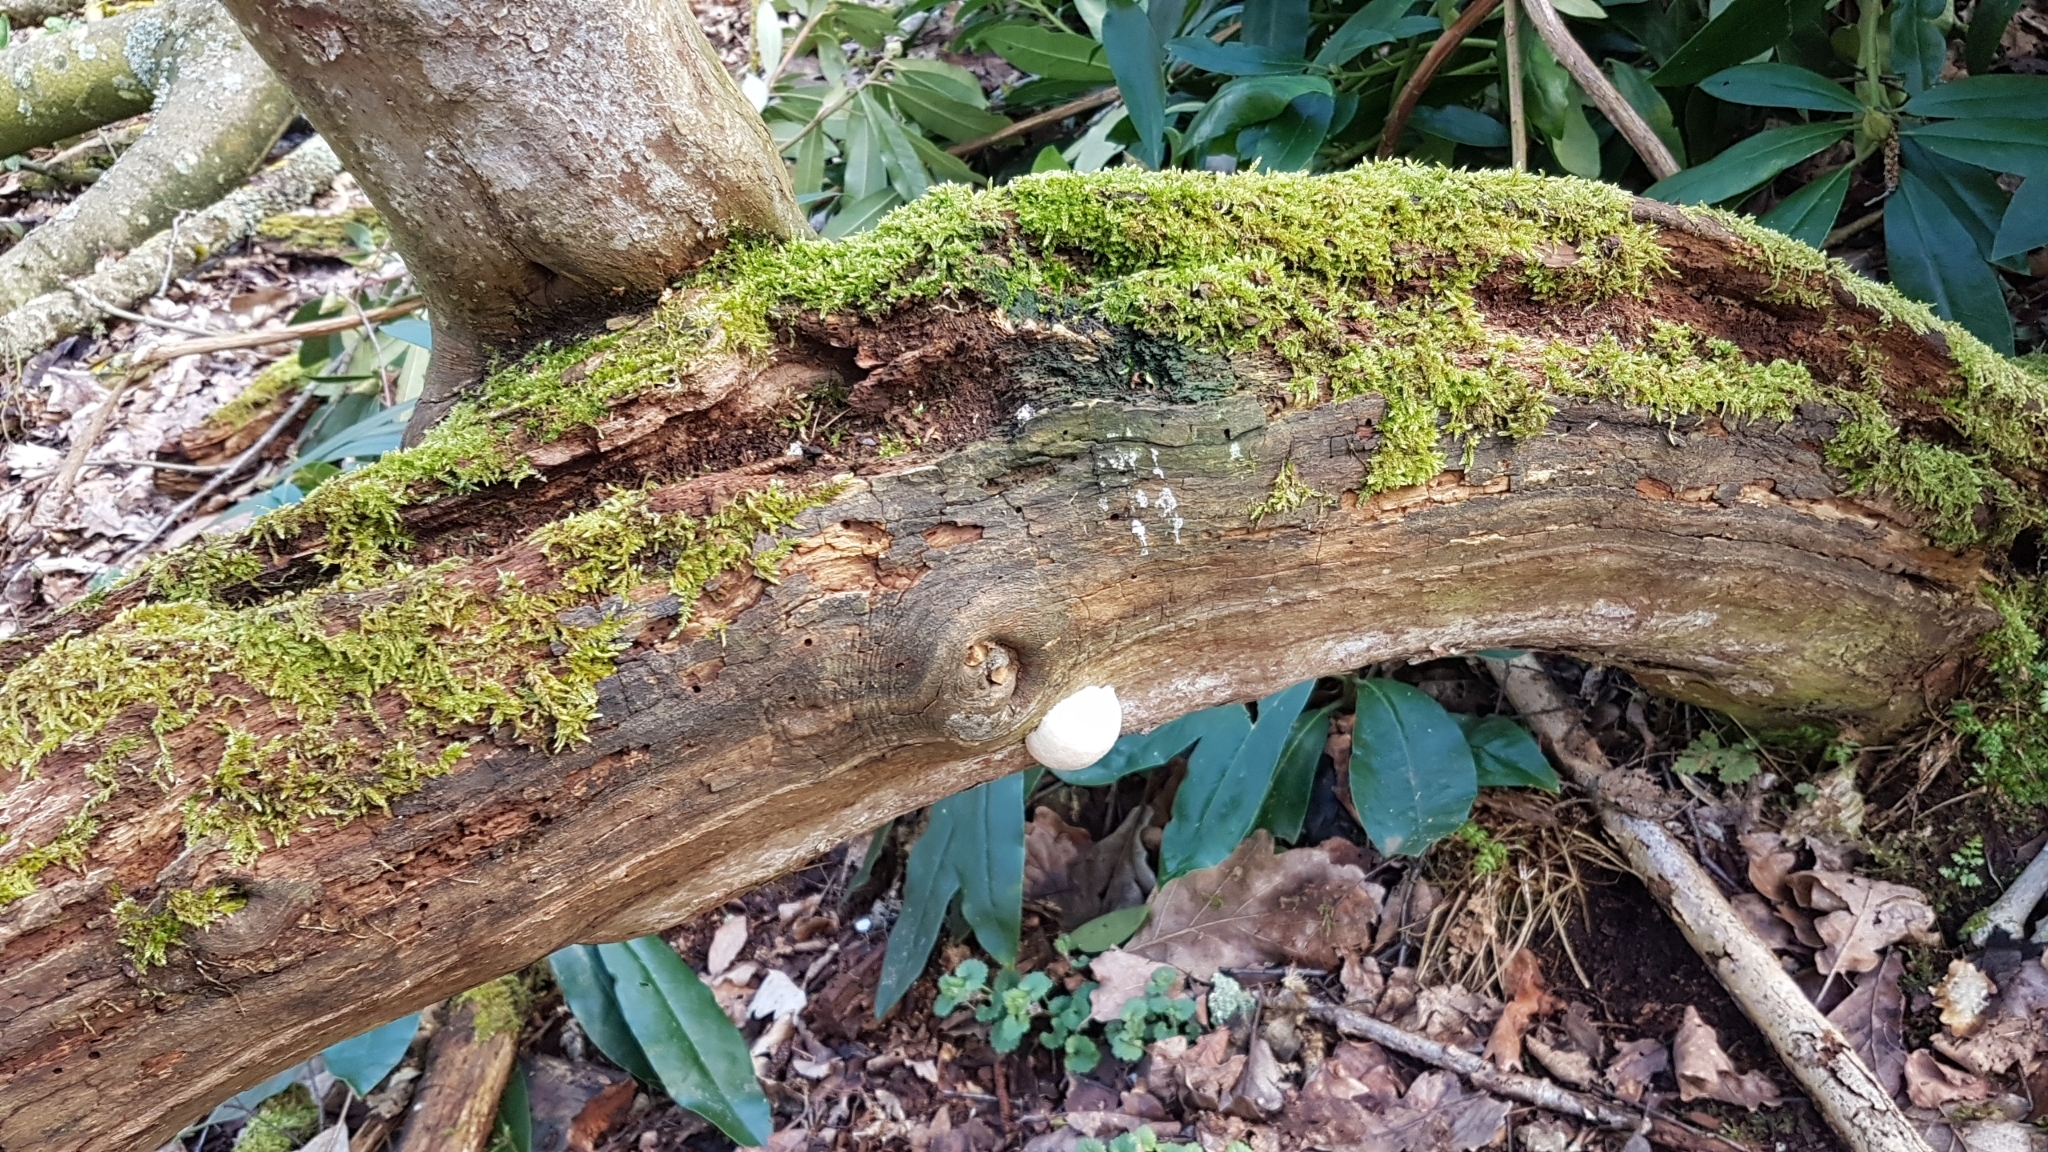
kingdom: Protozoa
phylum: Mycetozoa
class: Myxomycetes
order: Cribrariales
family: Tubiferaceae
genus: Reticularia
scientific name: Reticularia lycoperdon
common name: False puffball
